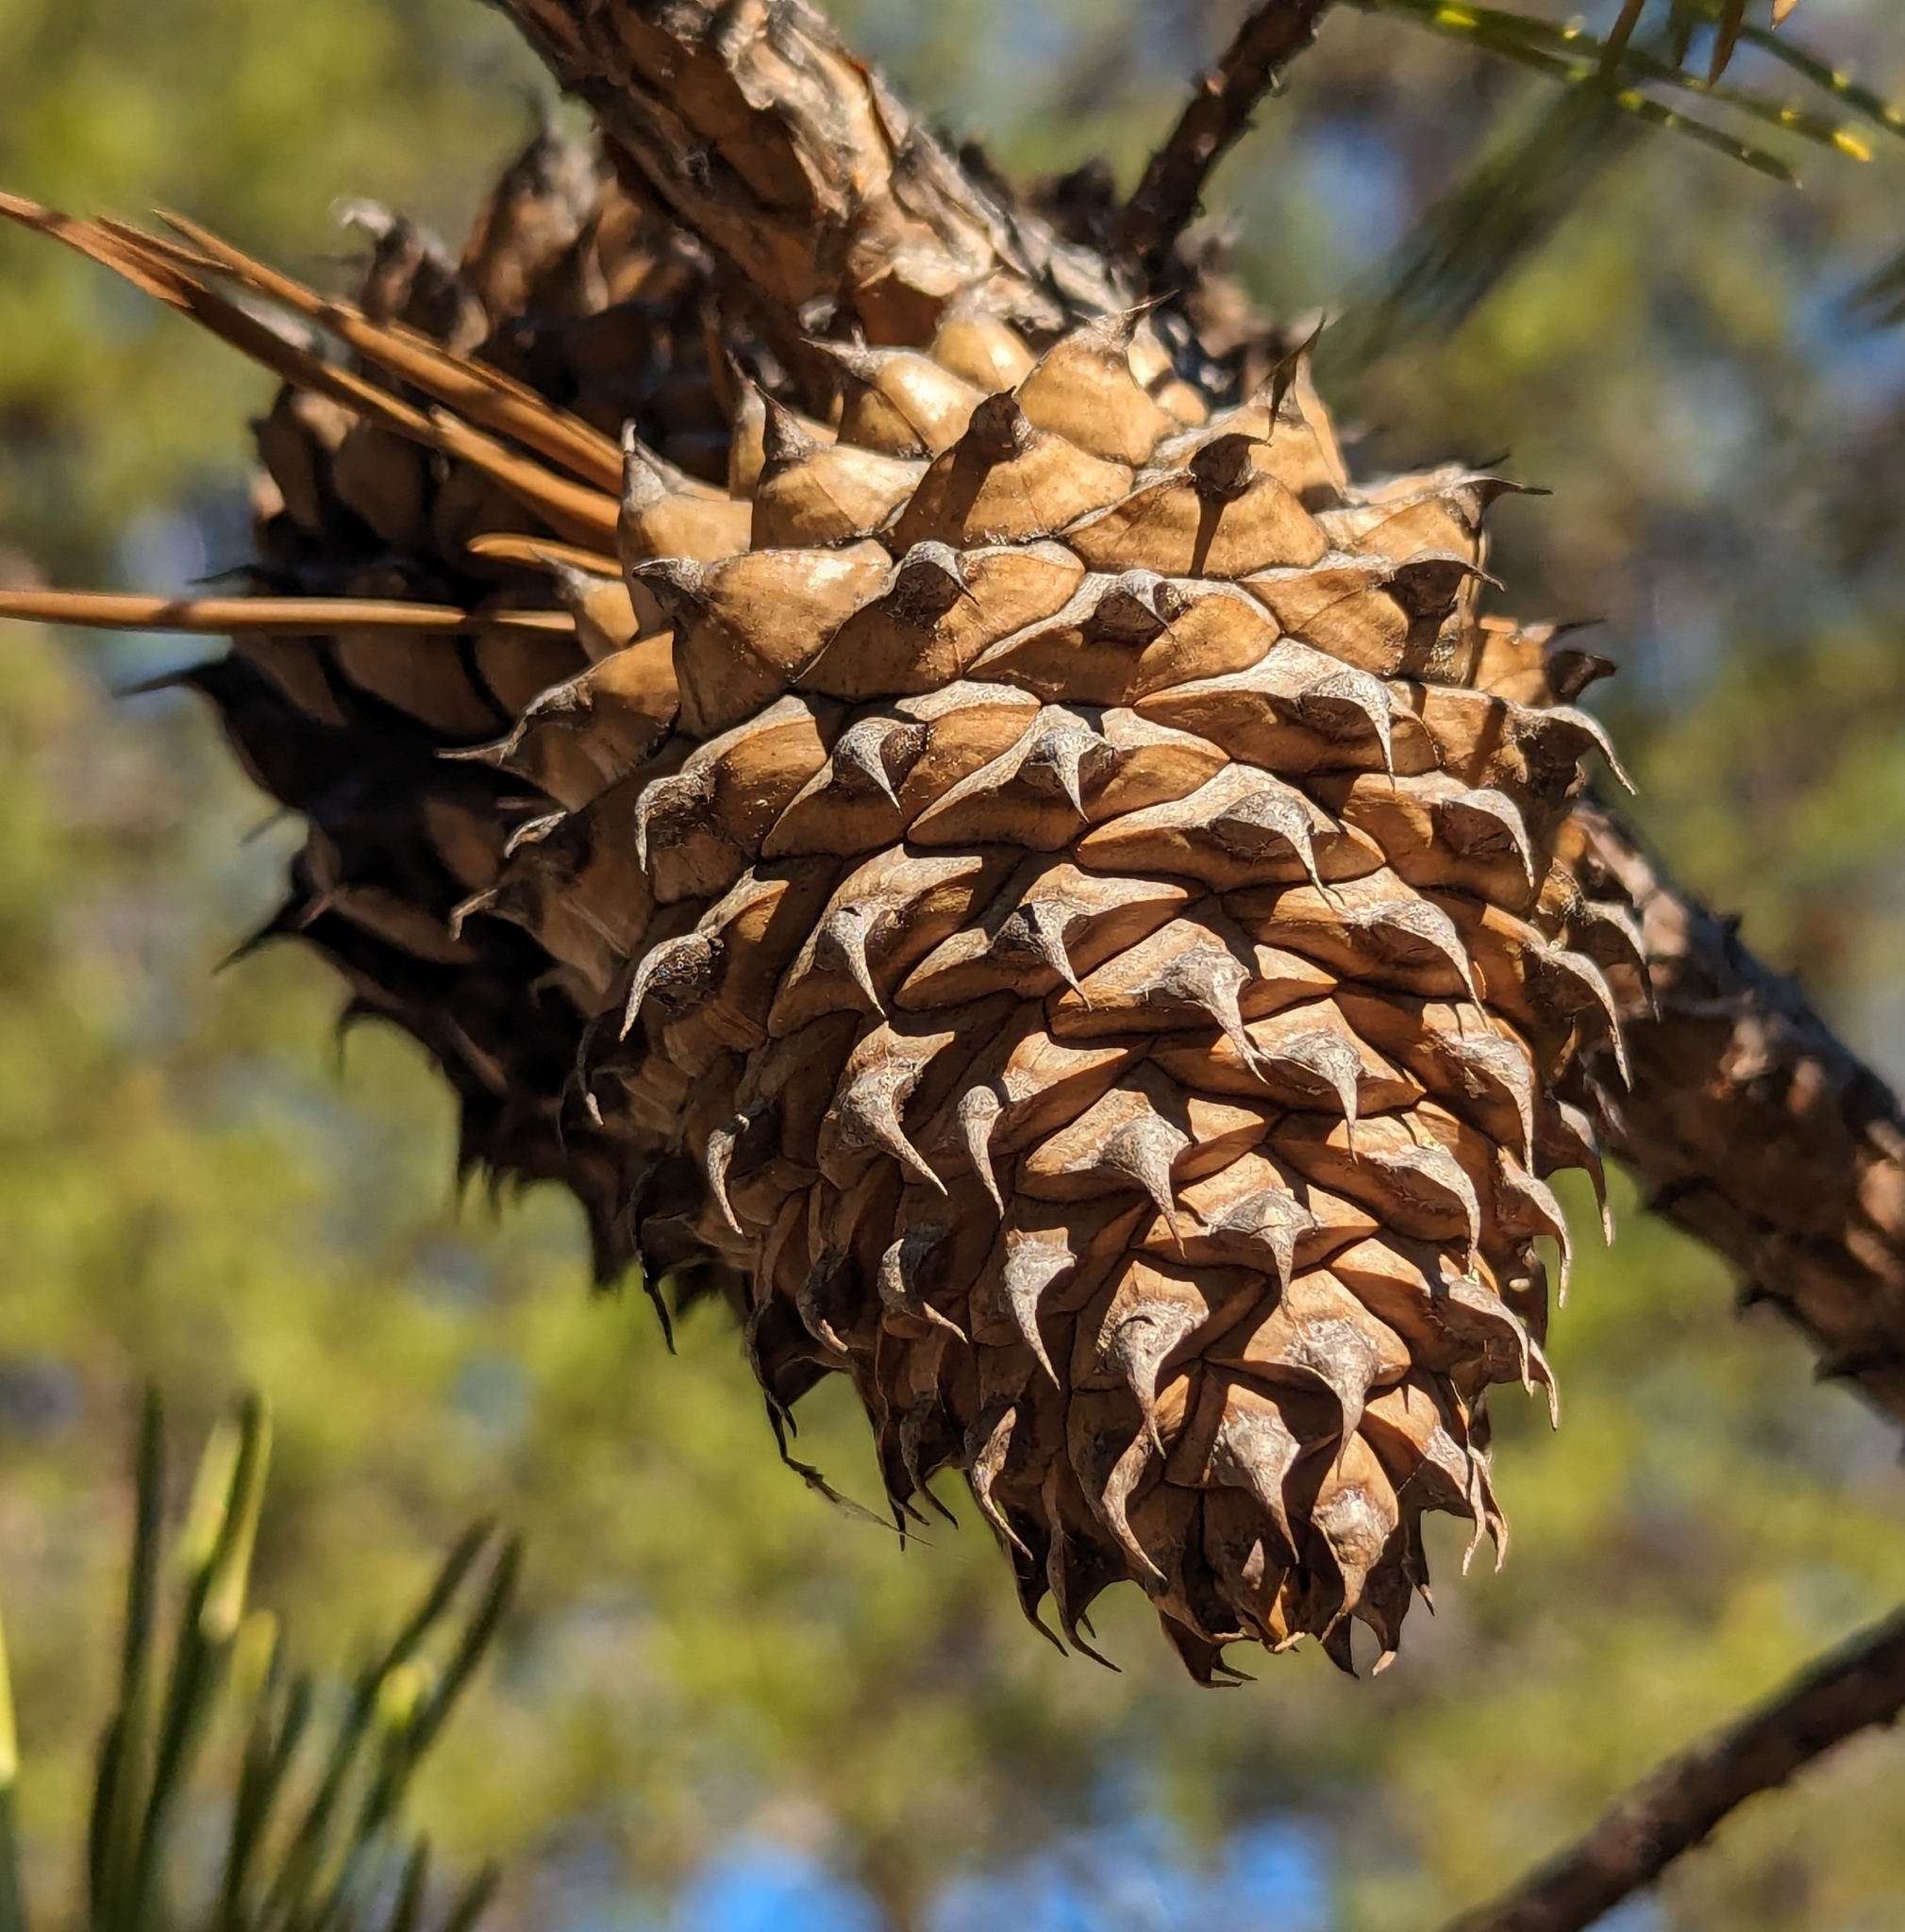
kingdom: Plantae
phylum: Tracheophyta
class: Pinopsida
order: Pinales
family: Pinaceae
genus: Pinus
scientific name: Pinus pungens
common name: Hickory pine
